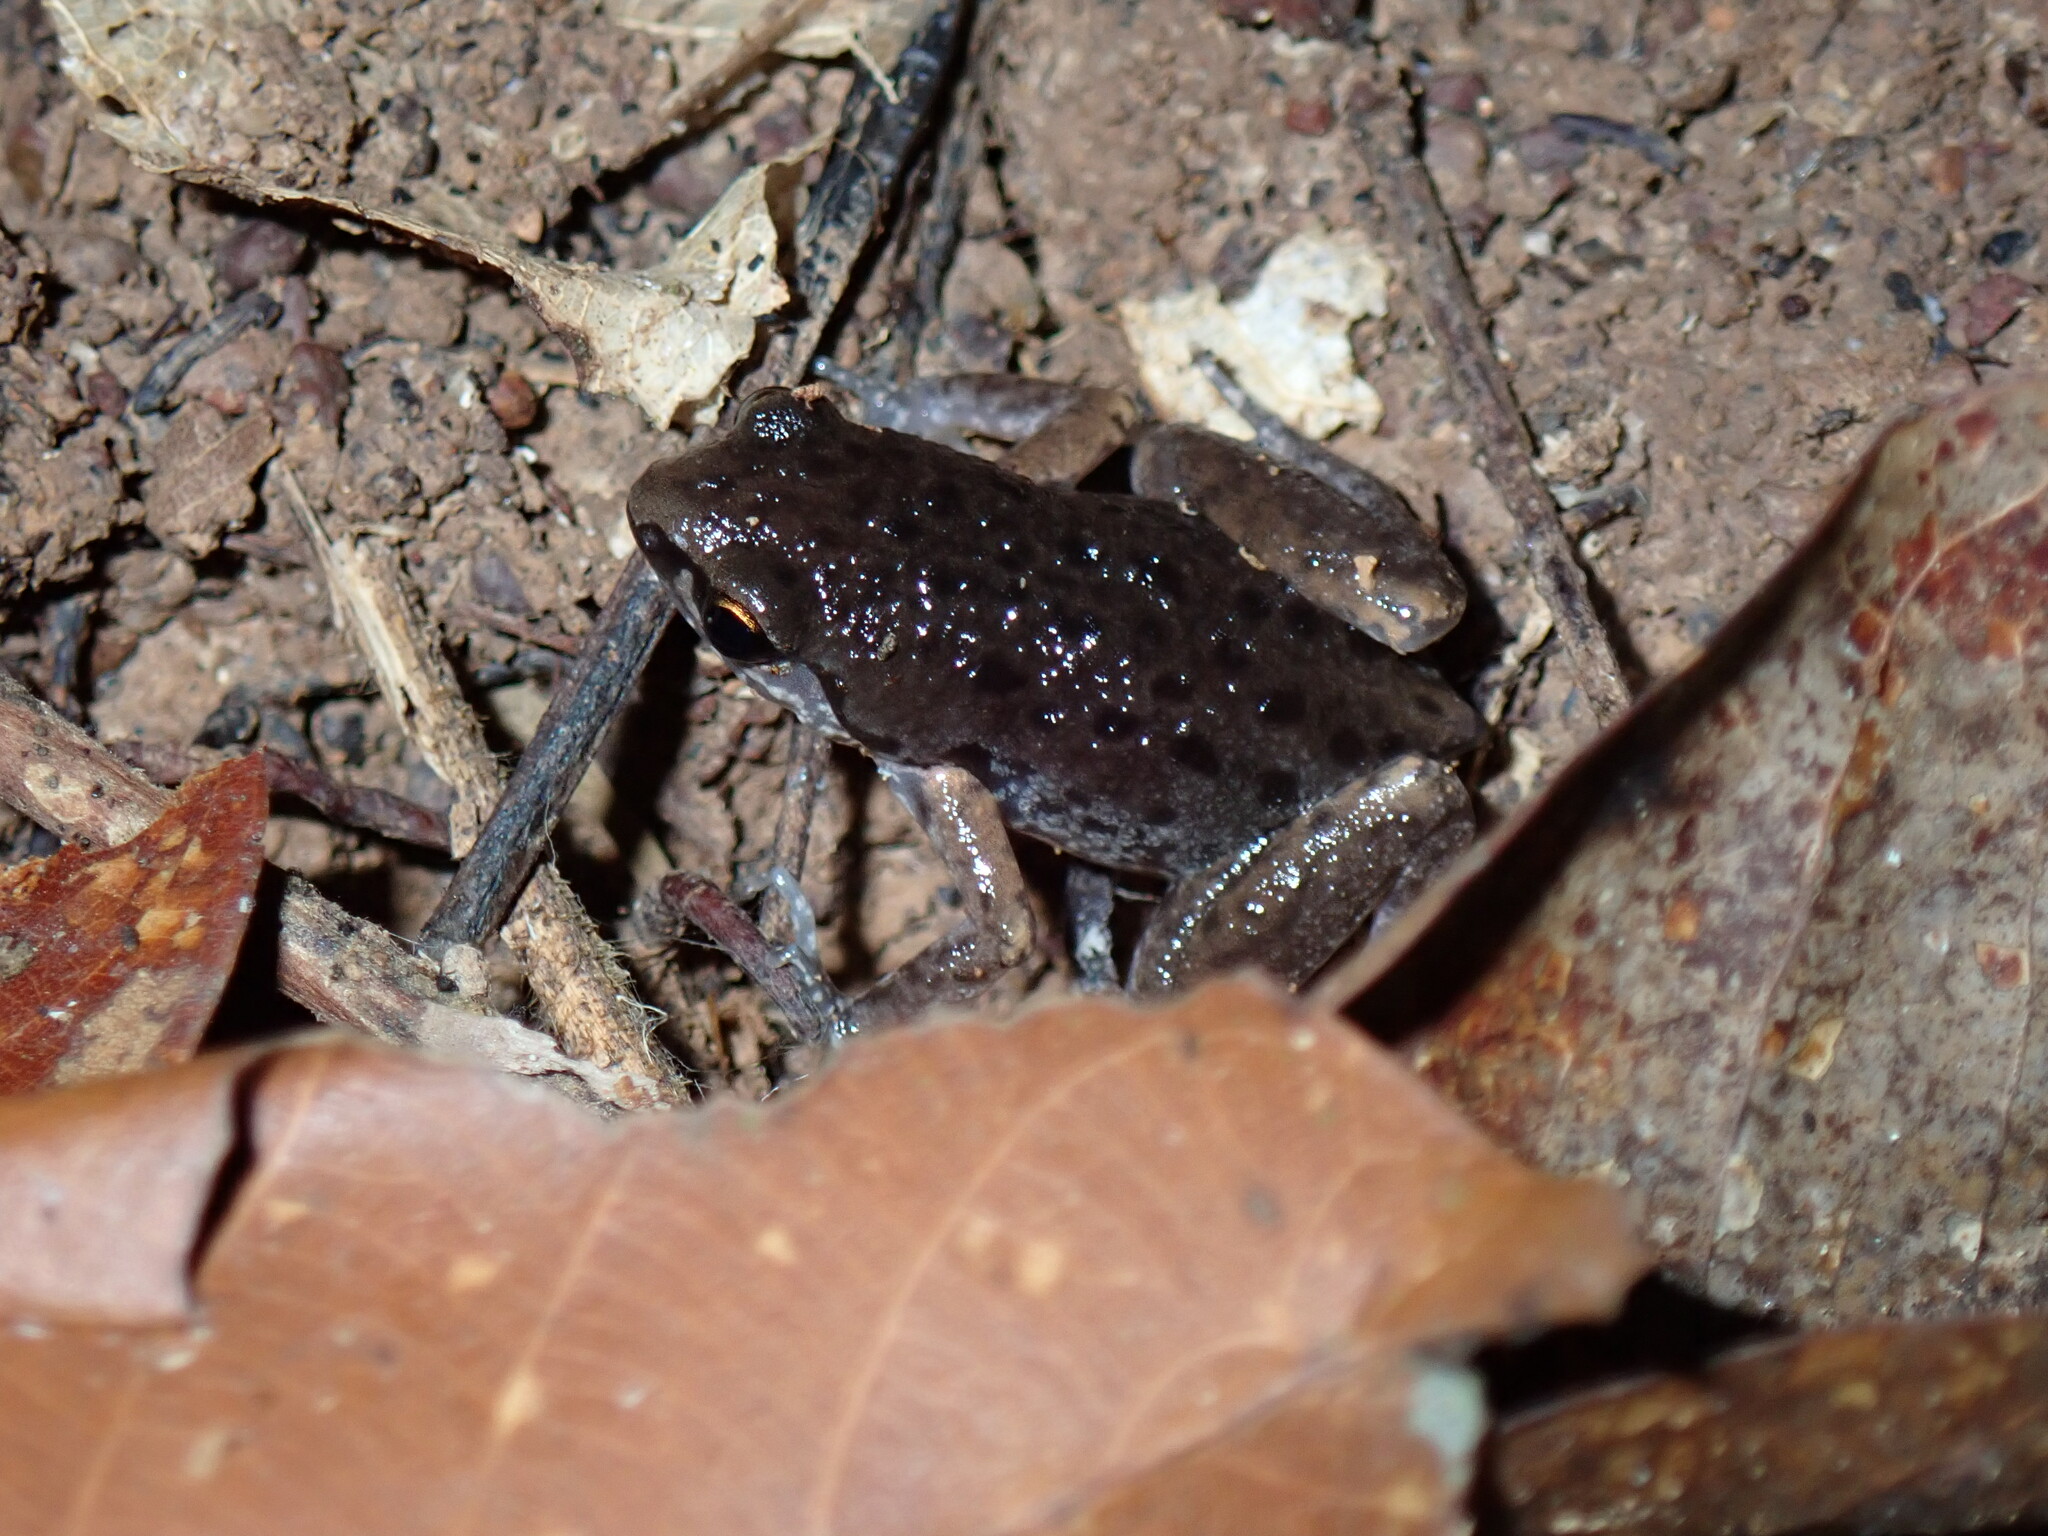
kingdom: Animalia
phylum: Chordata
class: Amphibia
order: Anura
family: Microhylidae
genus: Micryletta
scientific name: Micryletta erythropoda
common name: Mada paddy frog
